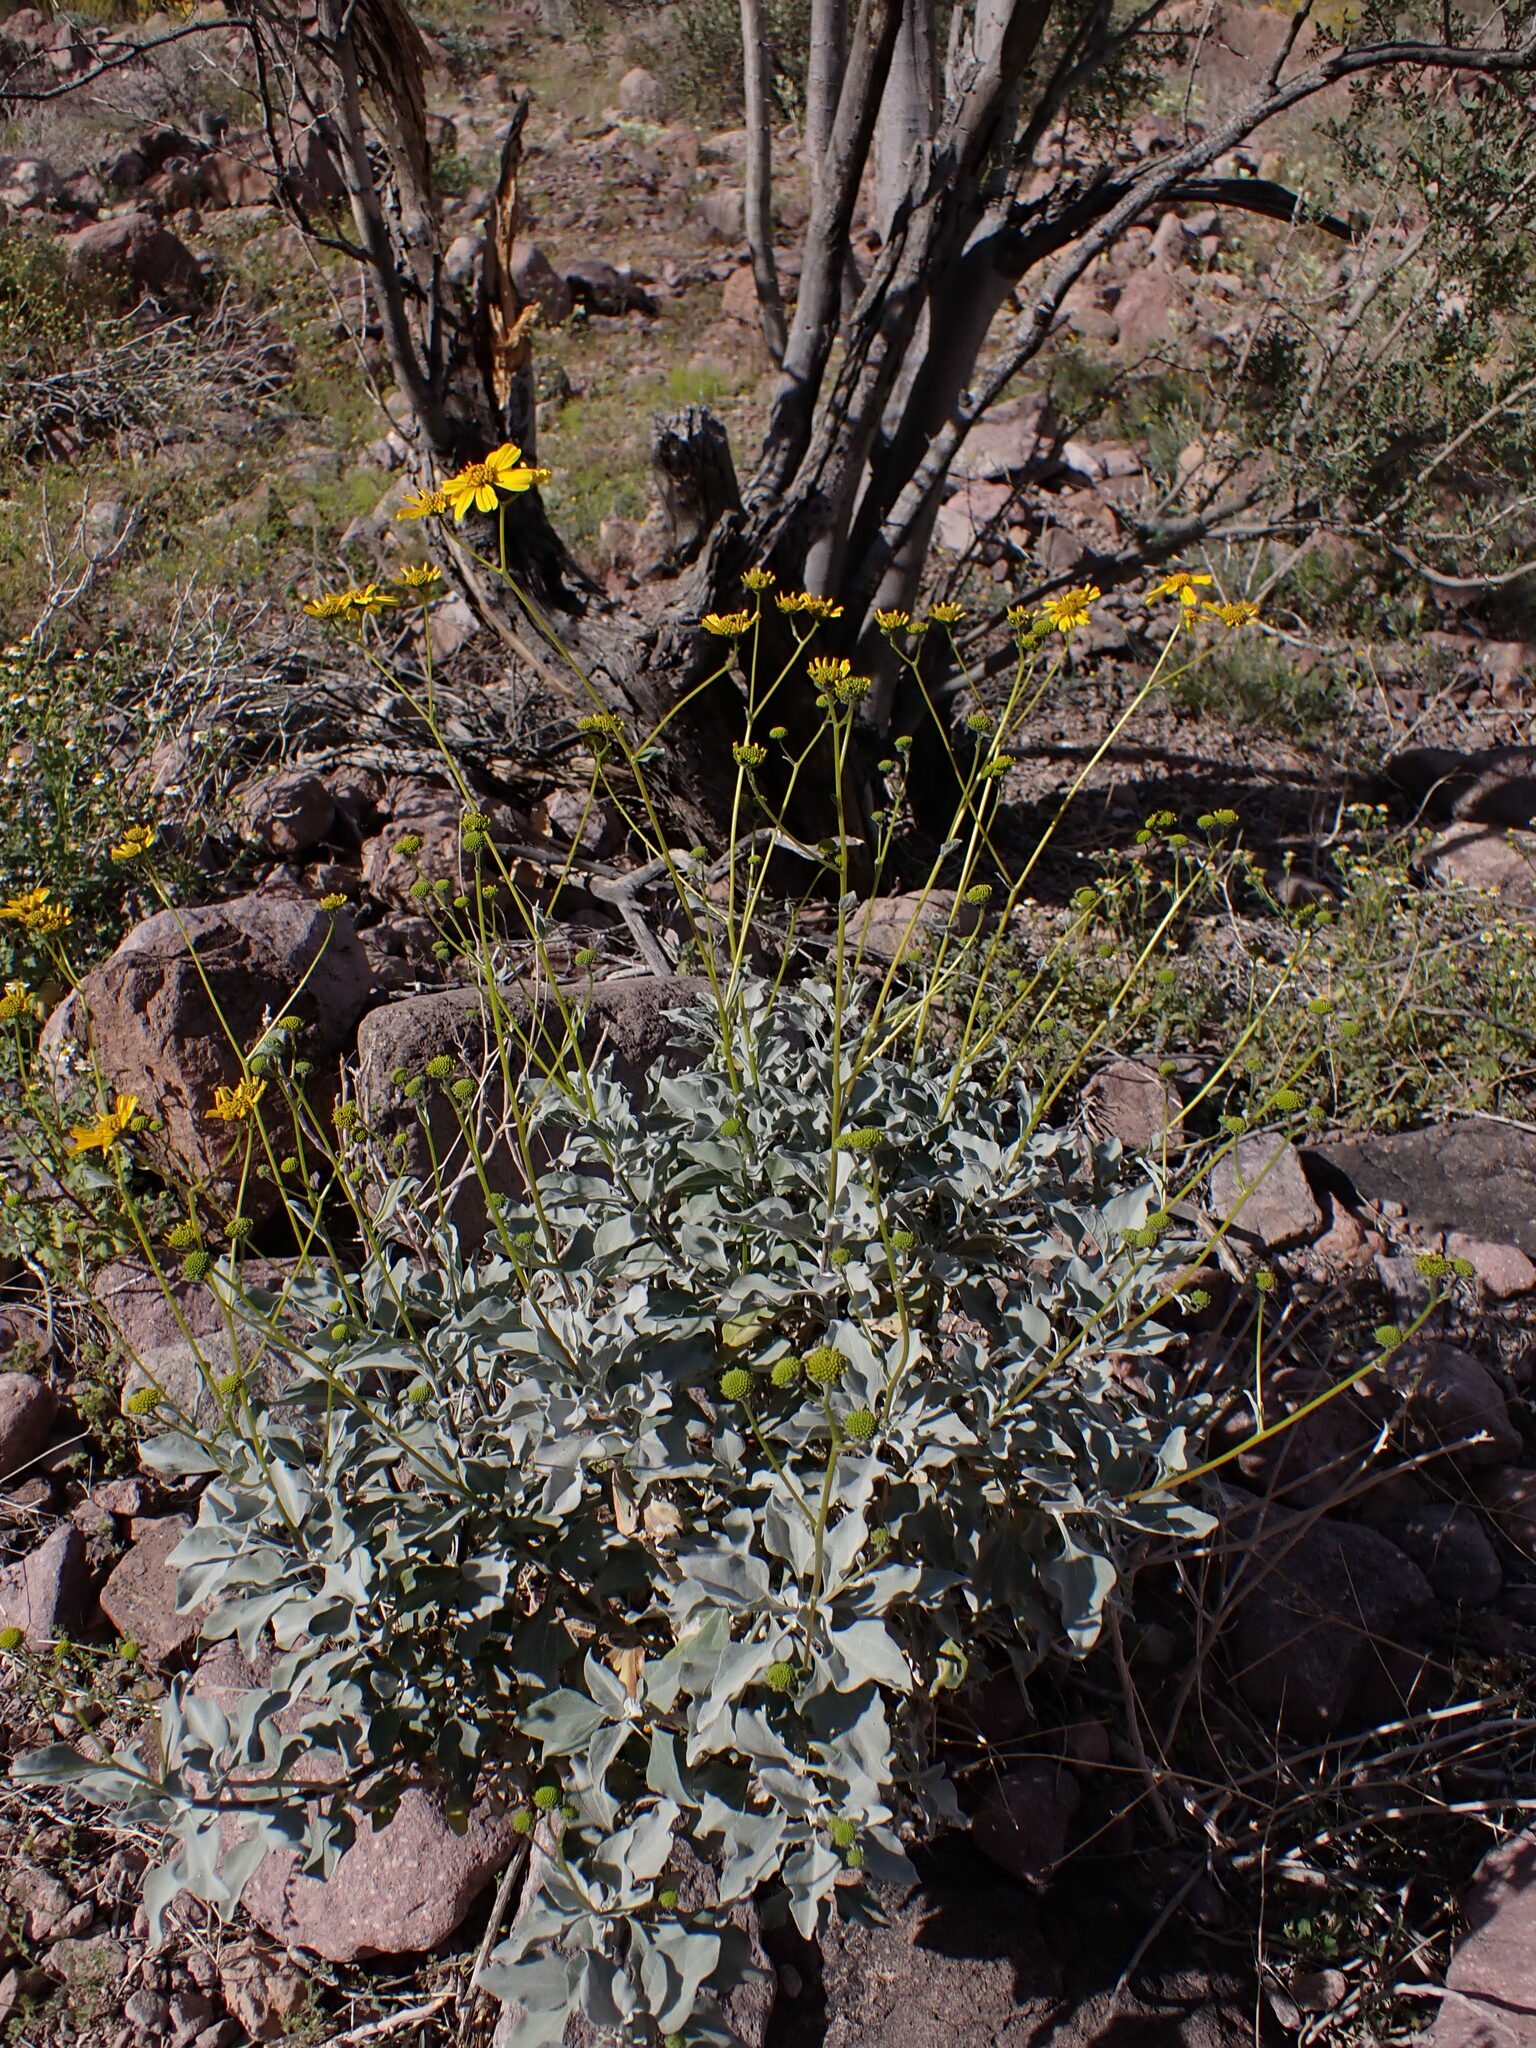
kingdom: Plantae
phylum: Tracheophyta
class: Magnoliopsida
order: Asterales
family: Asteraceae
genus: Encelia
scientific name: Encelia farinosa
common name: Brittlebush
